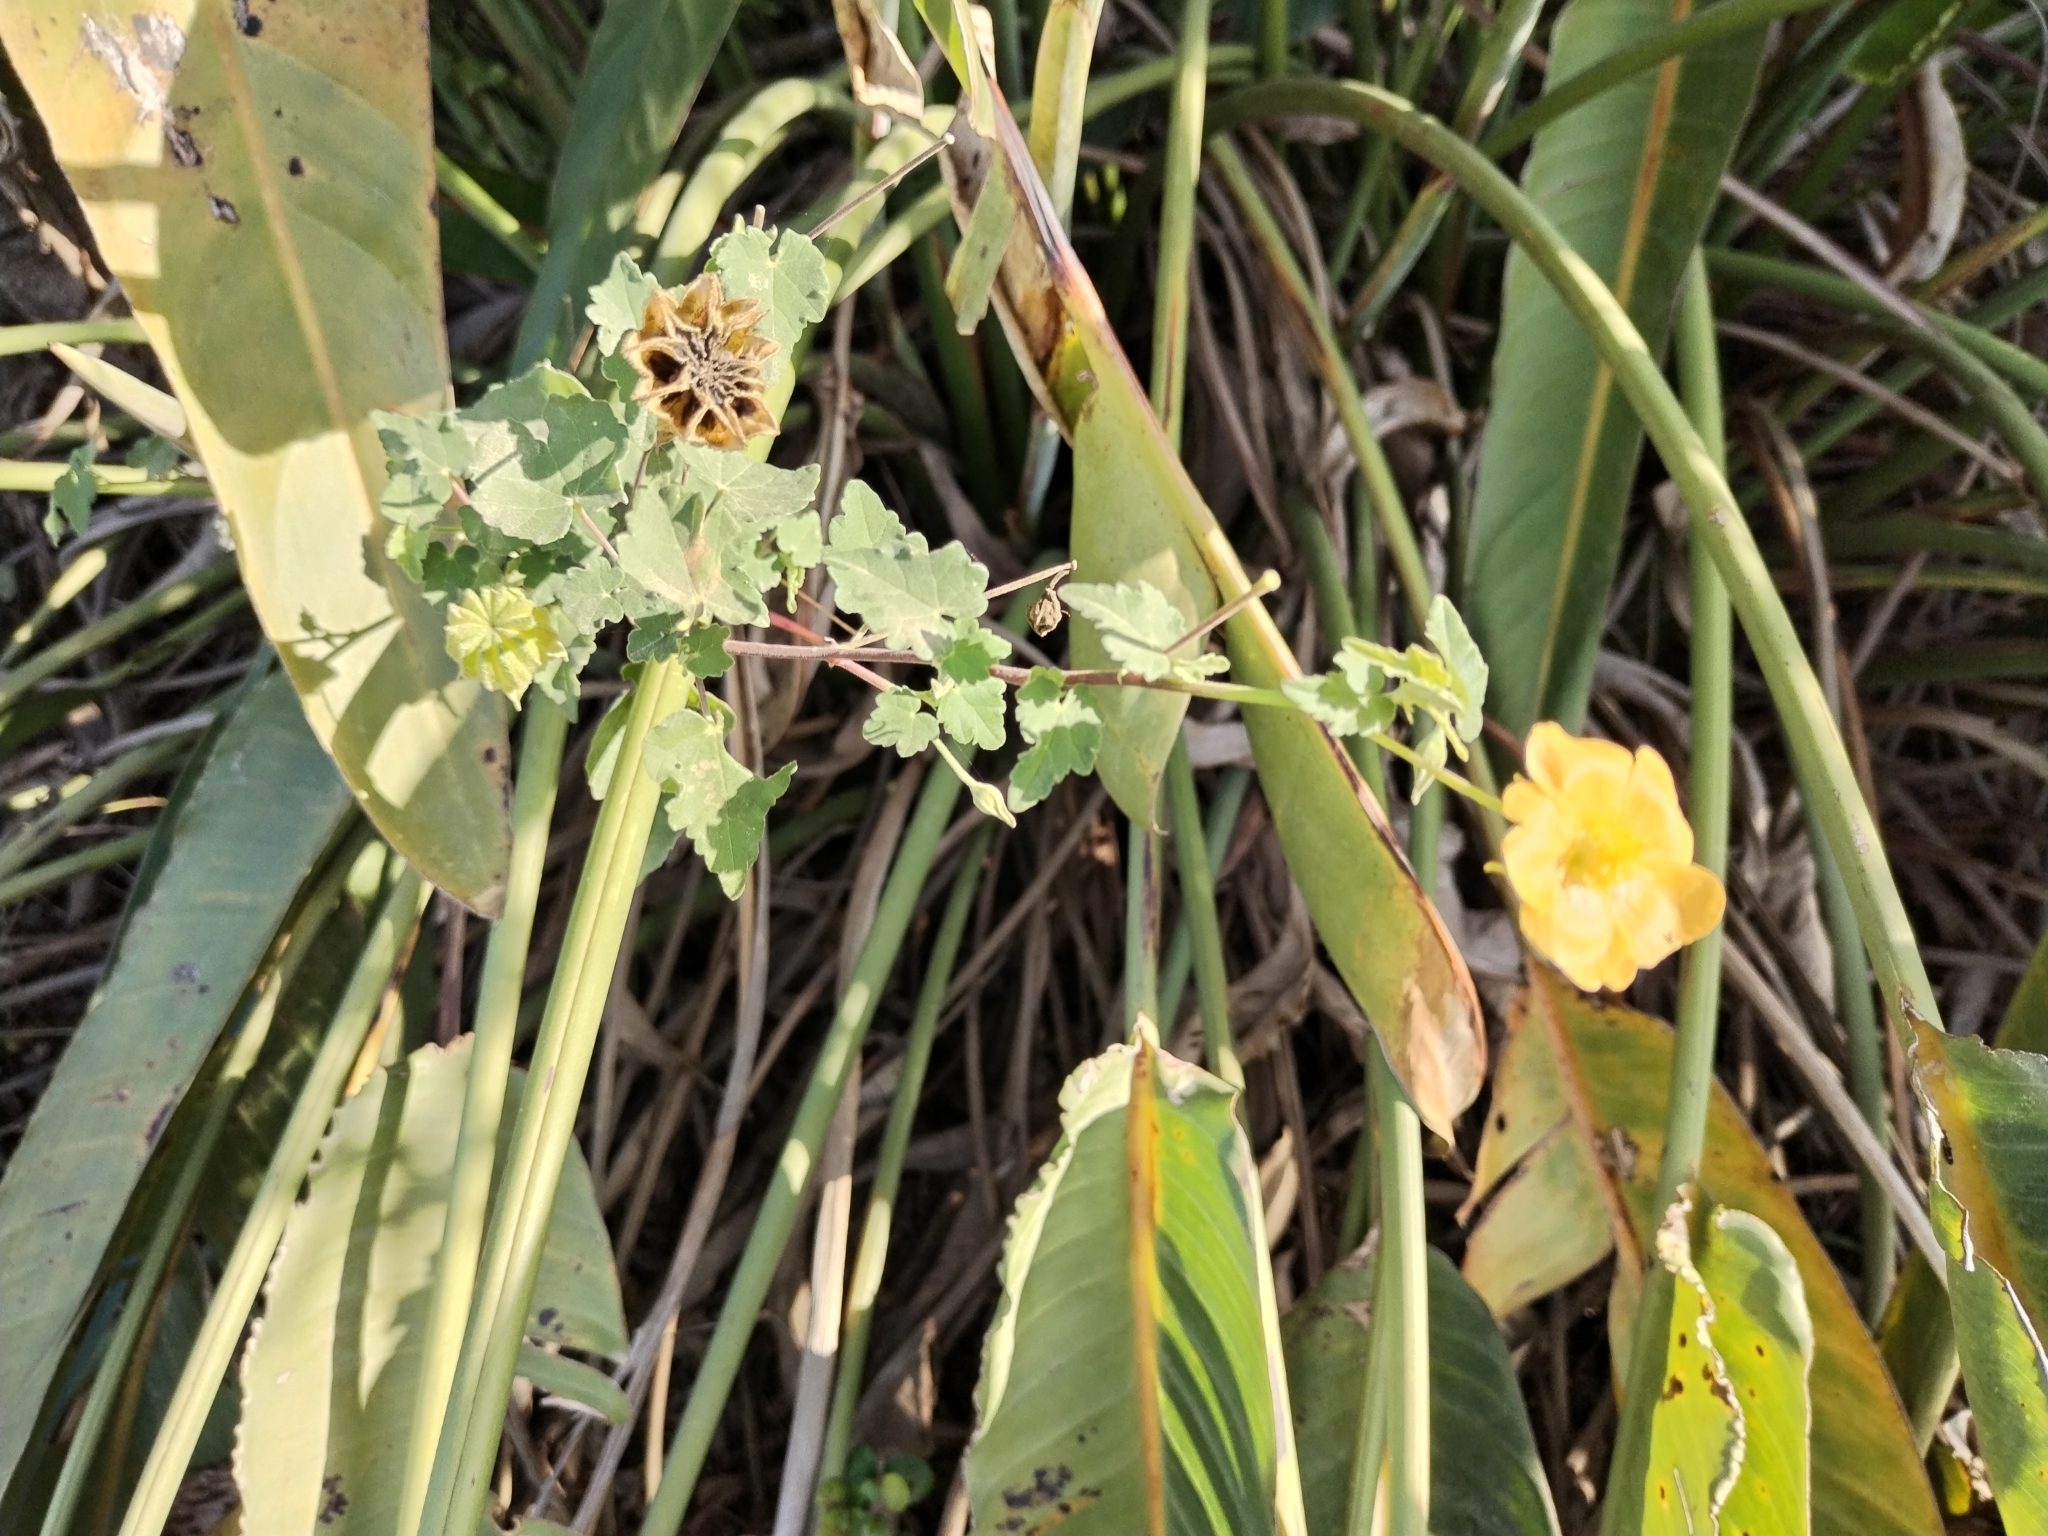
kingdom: Plantae
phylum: Tracheophyta
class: Magnoliopsida
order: Malvales
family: Malvaceae
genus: Abutilon
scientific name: Abutilon sonneratianum
